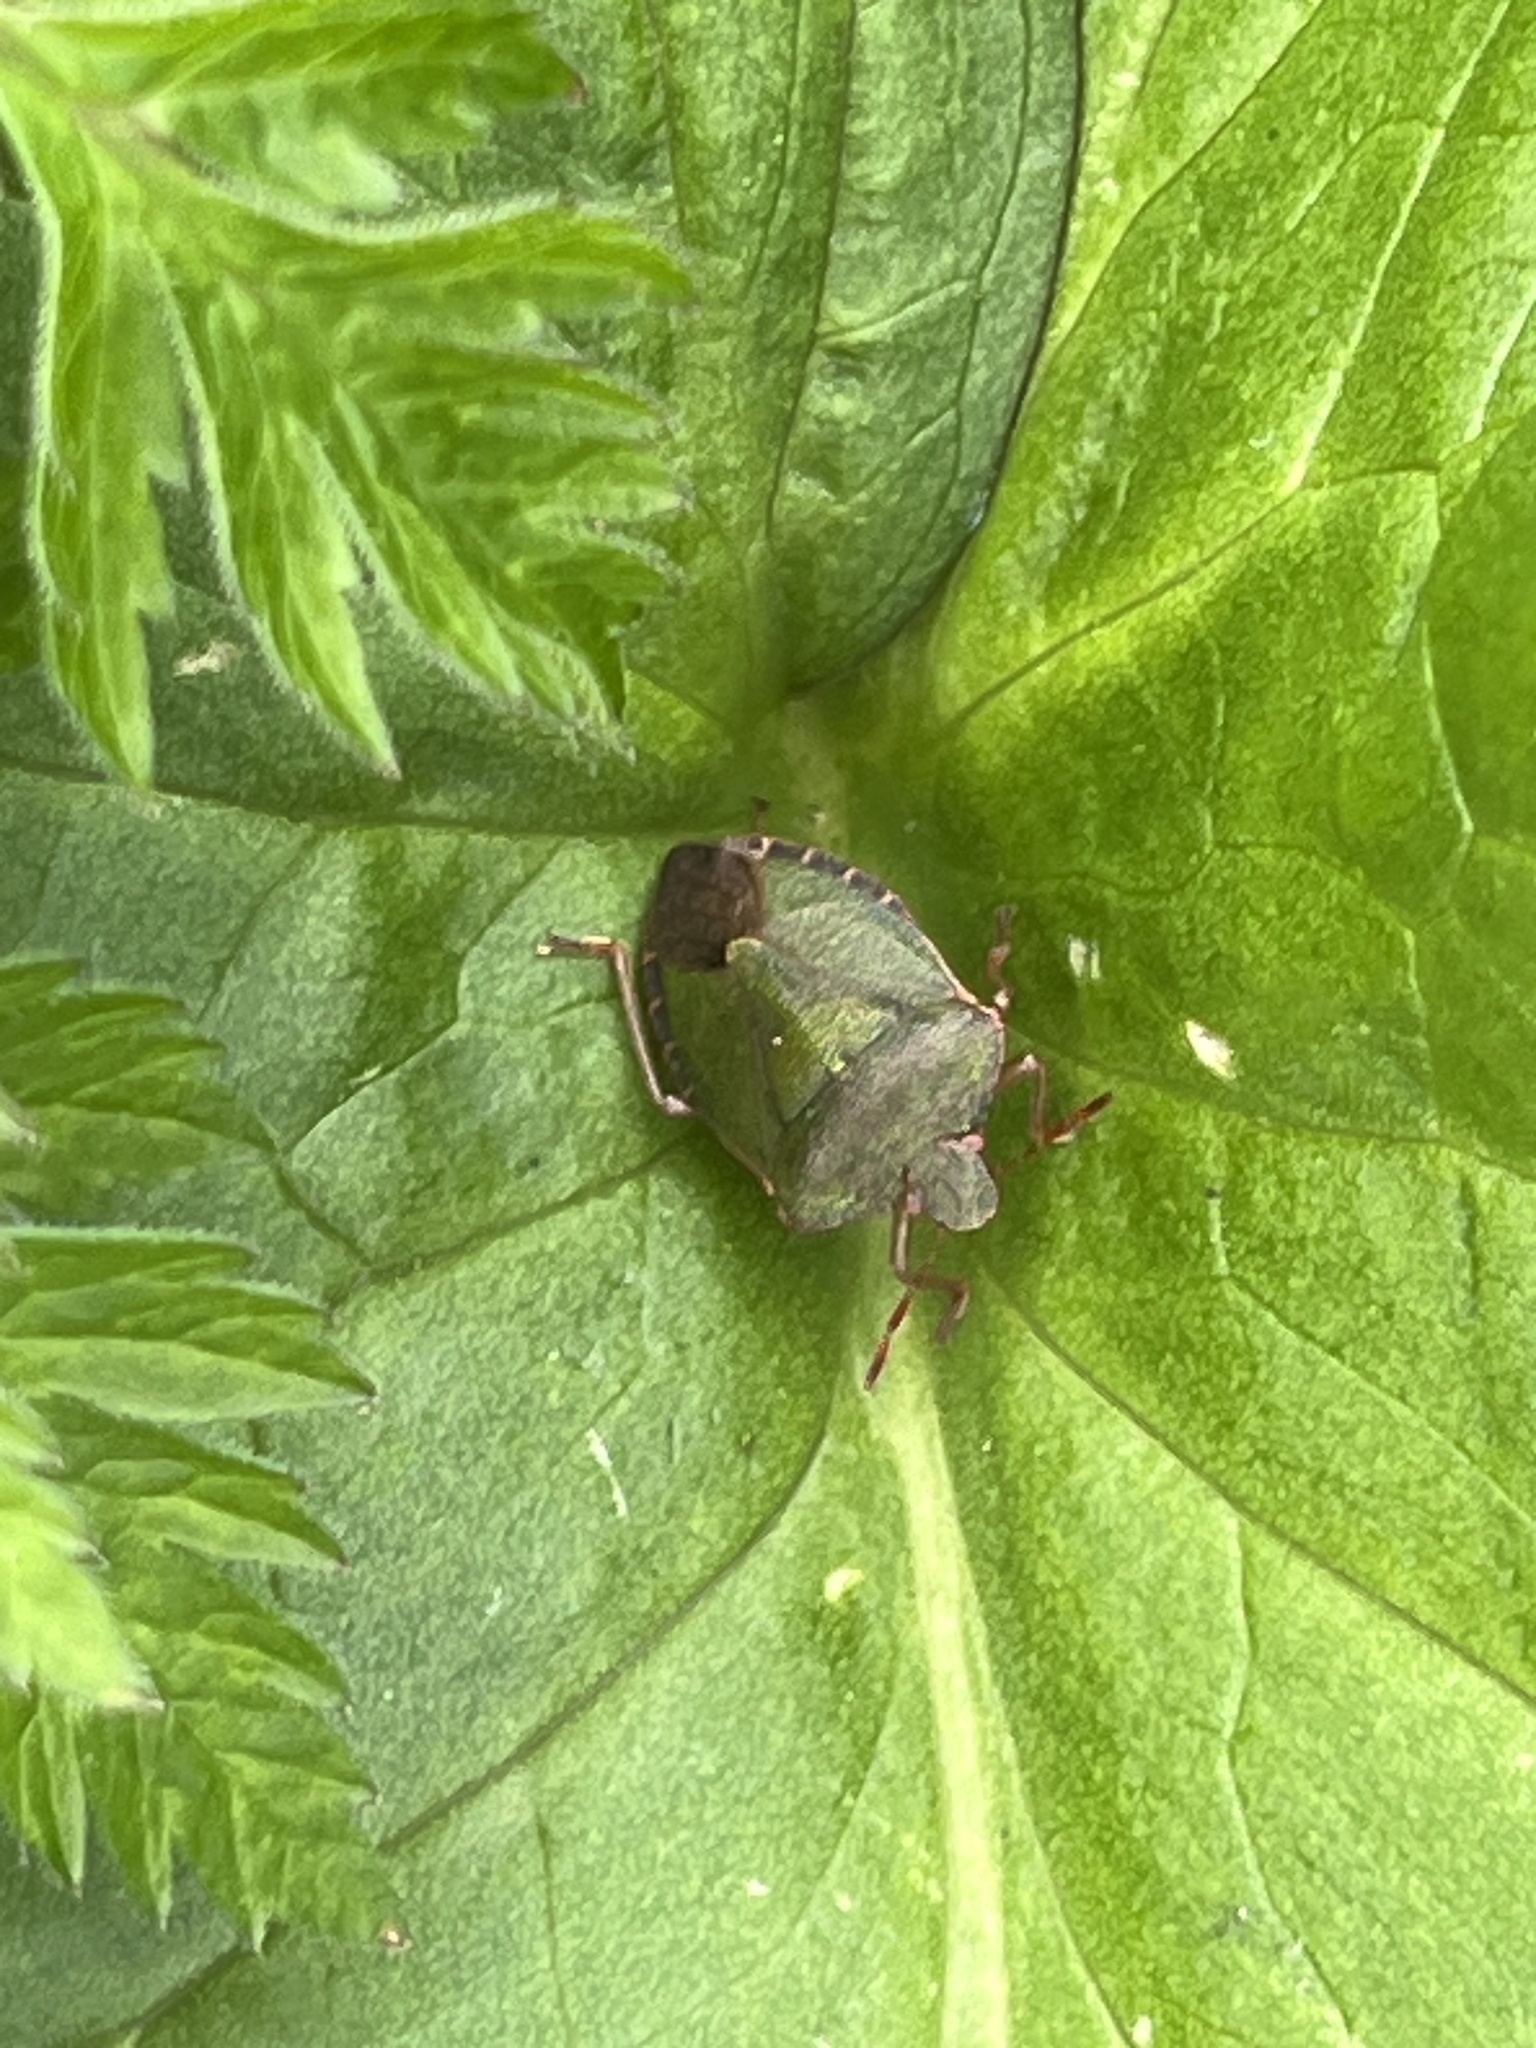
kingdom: Animalia
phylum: Arthropoda
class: Insecta
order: Hemiptera
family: Pentatomidae
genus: Palomena
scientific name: Palomena prasina
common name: Green shieldbug
